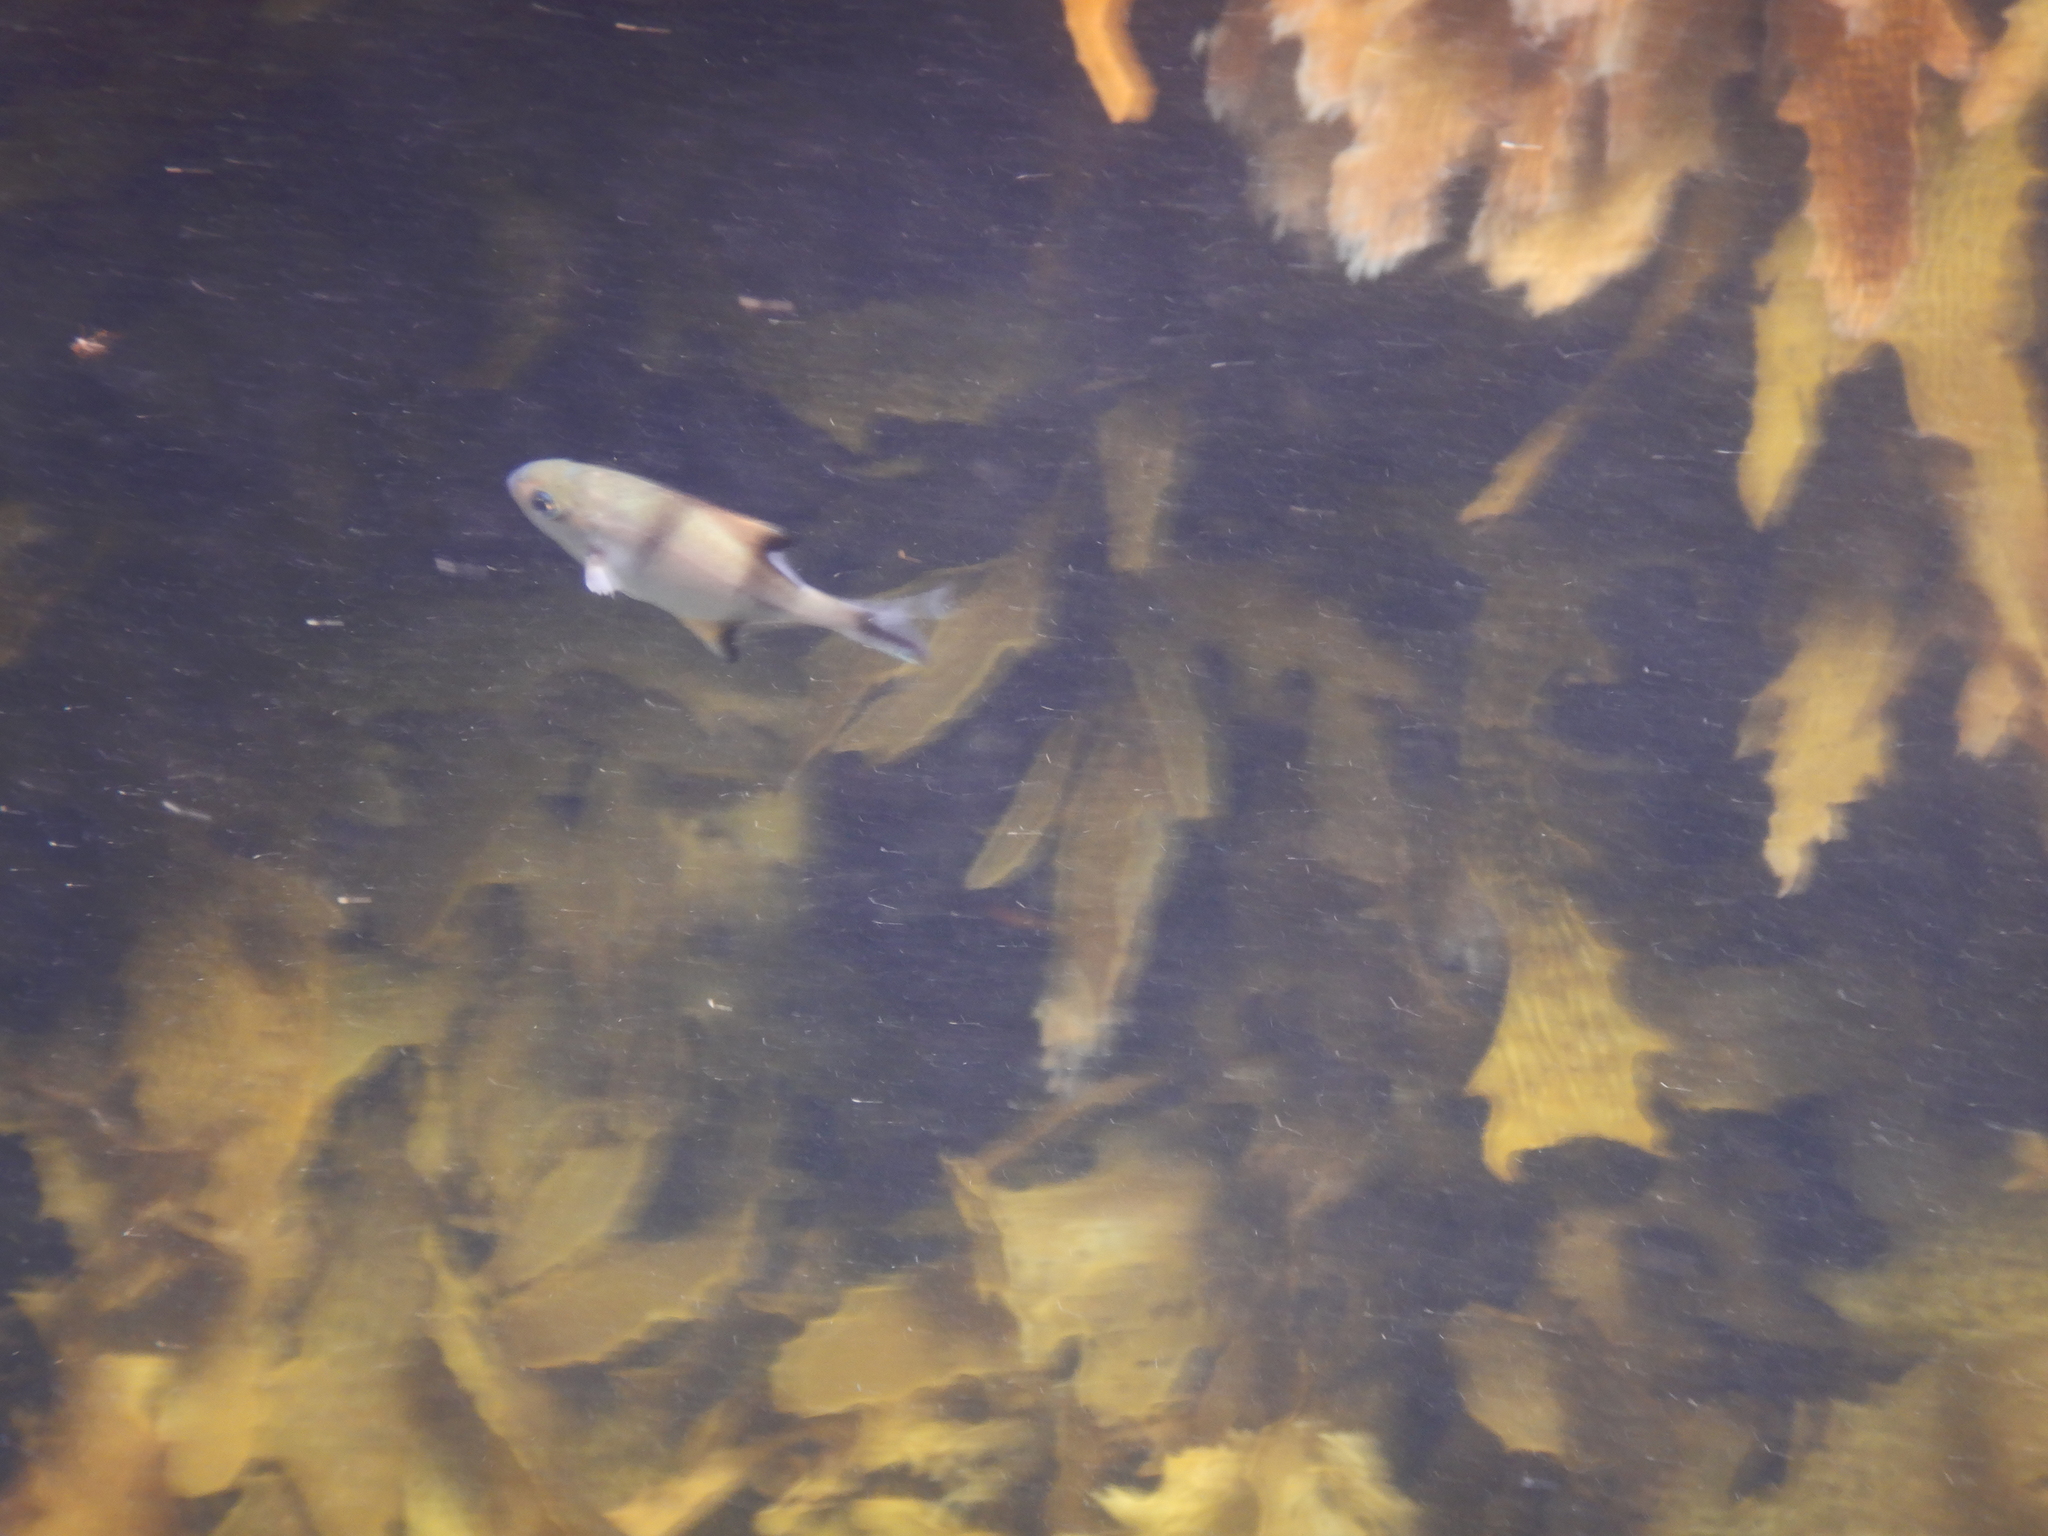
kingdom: Animalia
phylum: Chordata
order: Perciformes
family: Kyphosidae
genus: Scorpis
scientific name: Scorpis aequipinnis
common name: Sea sweep
